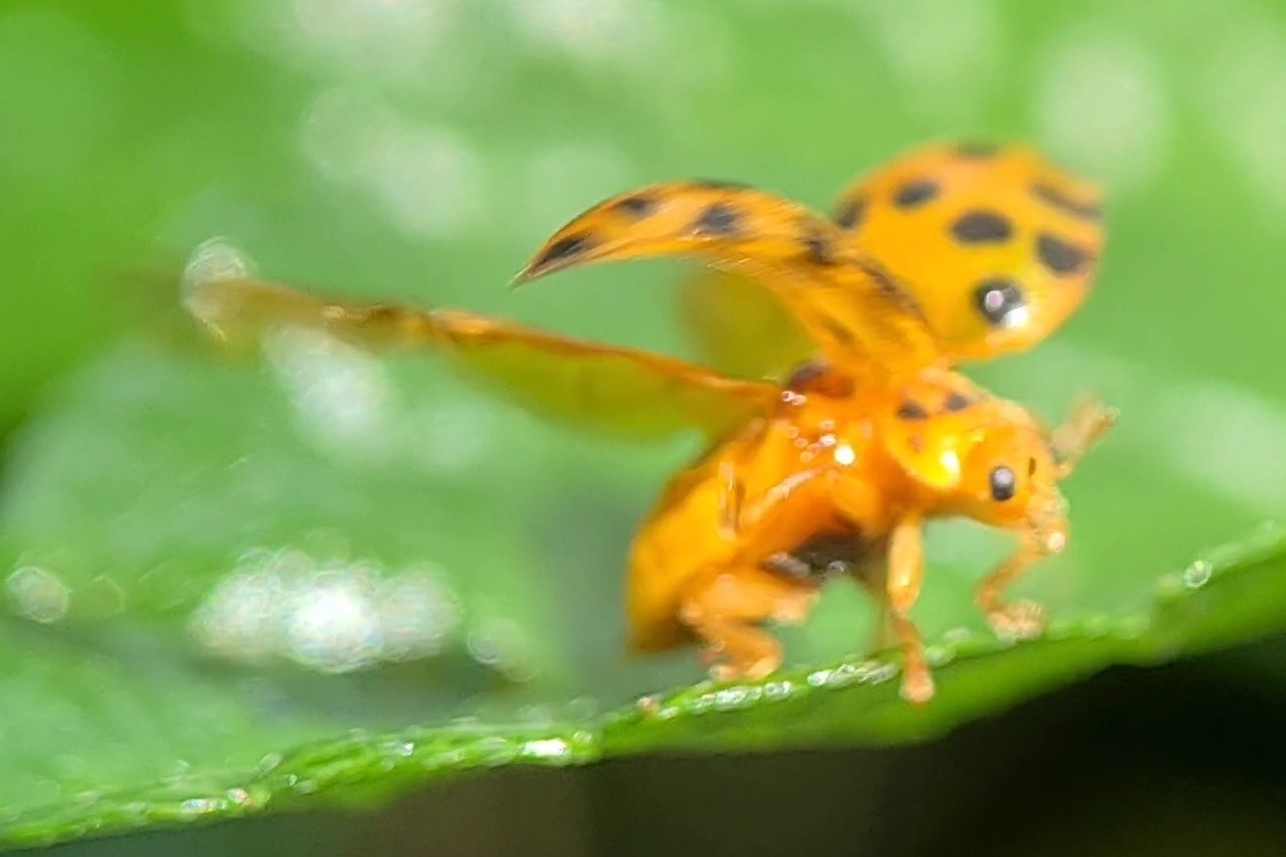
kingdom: Animalia
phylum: Arthropoda
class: Insecta
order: Coleoptera
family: Coccinellidae
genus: Henosepilachna
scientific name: Henosepilachna vigintioctopunctata
